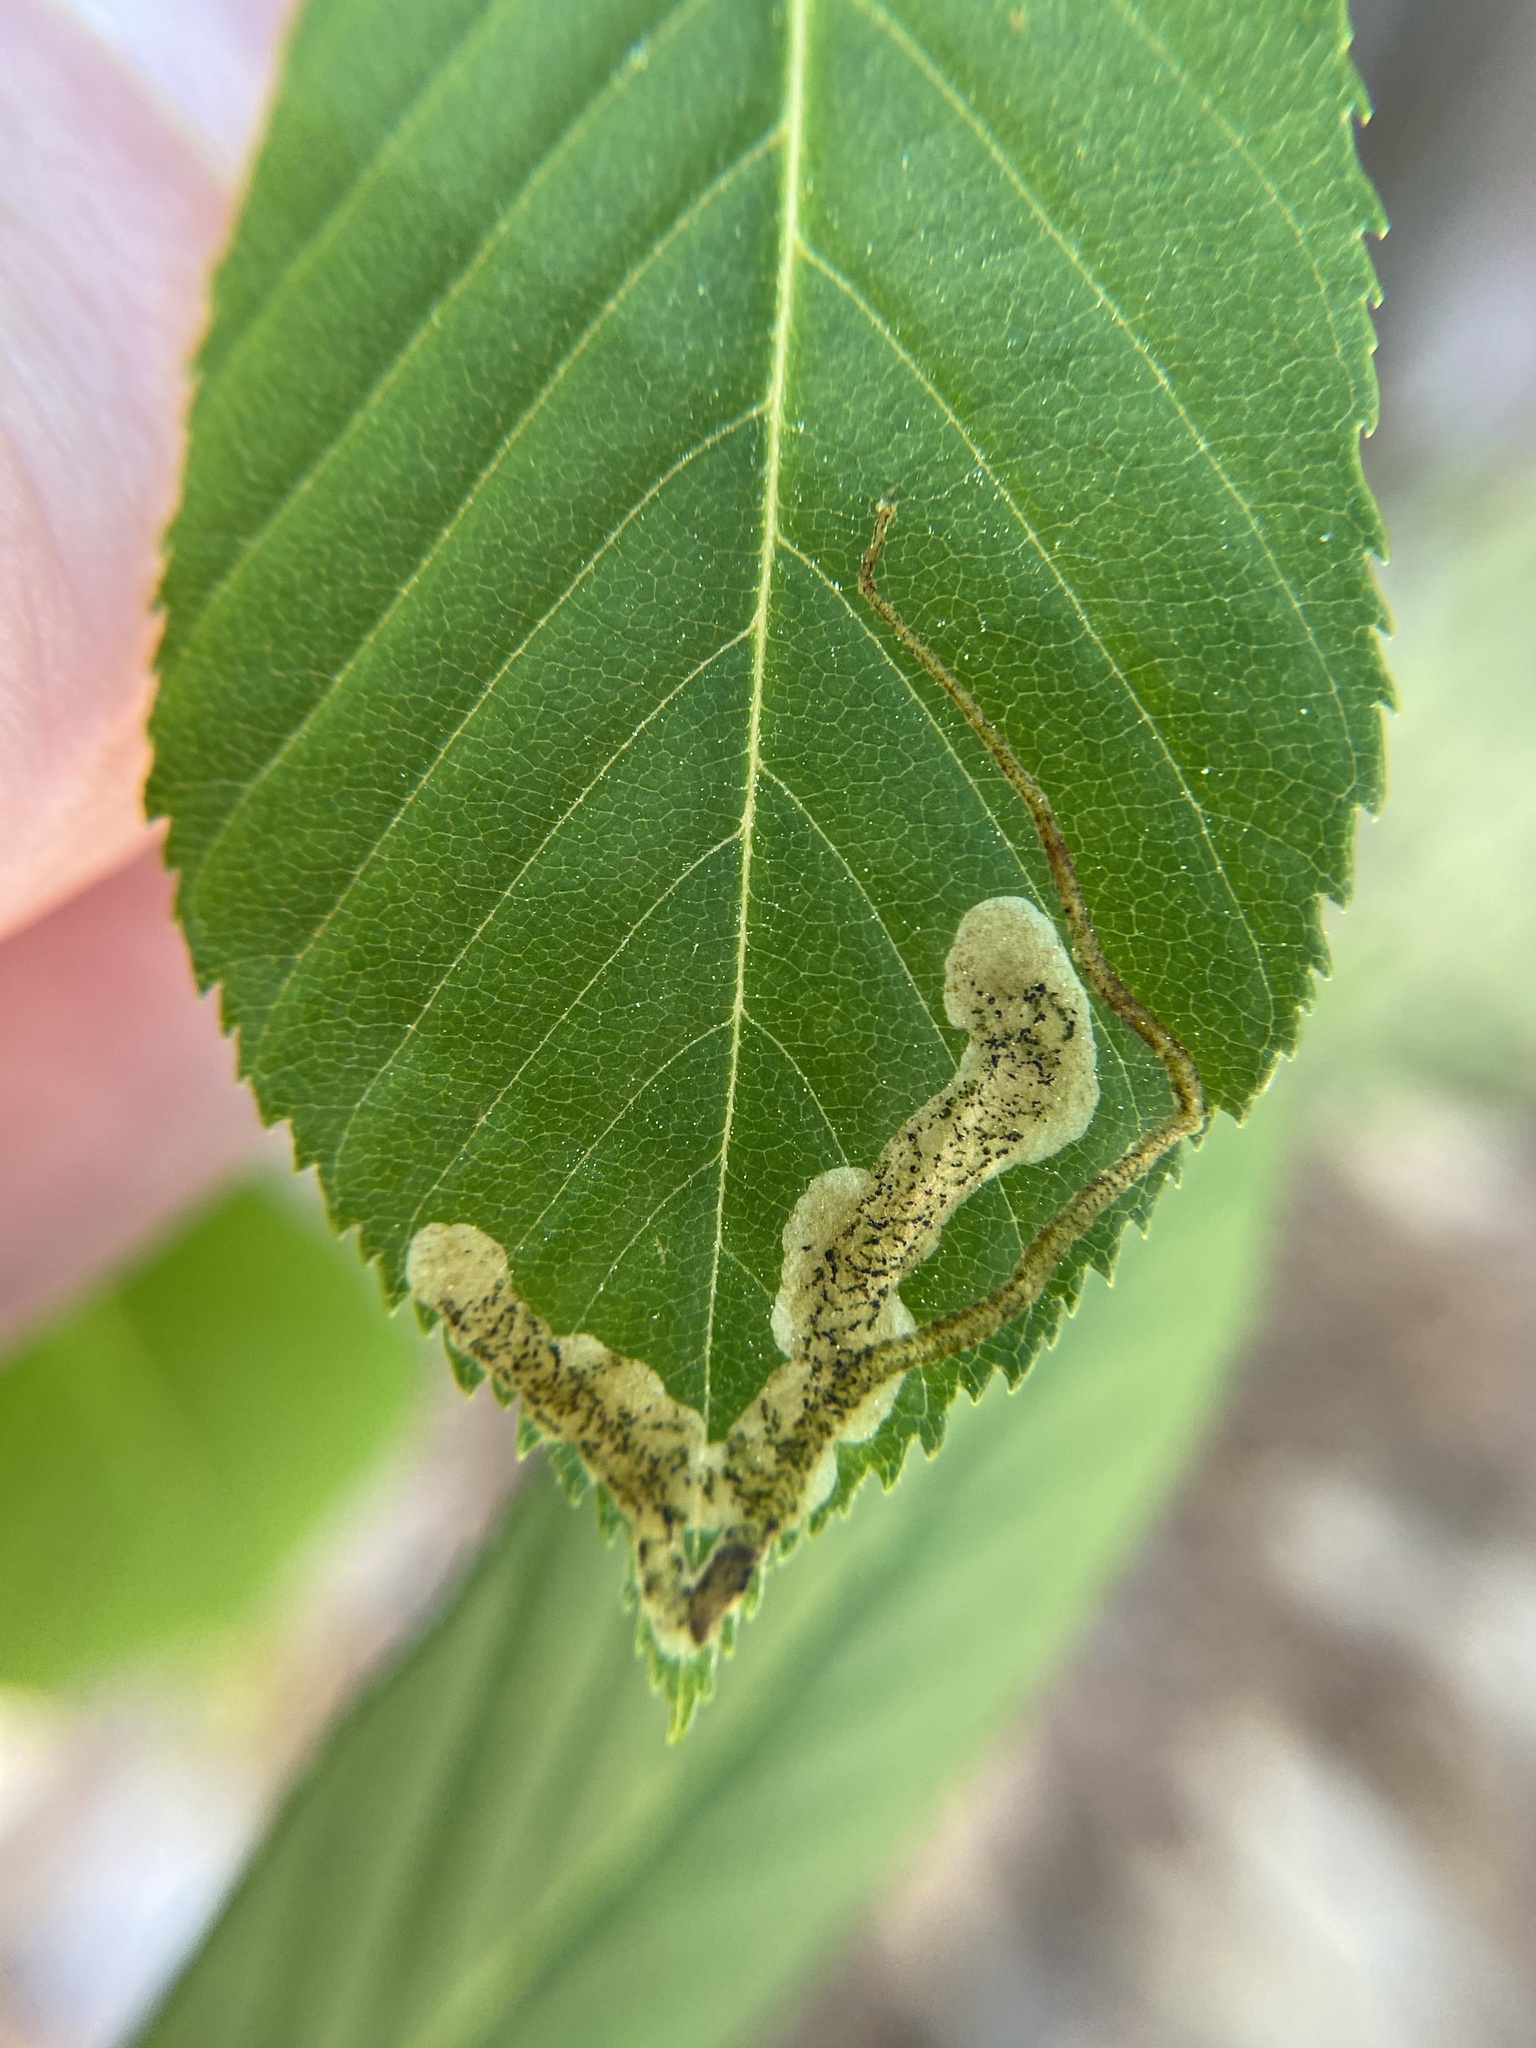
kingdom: Animalia
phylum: Arthropoda
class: Insecta
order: Diptera
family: Agromyzidae
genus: Phytomyza
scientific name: Phytomyza aesculi
